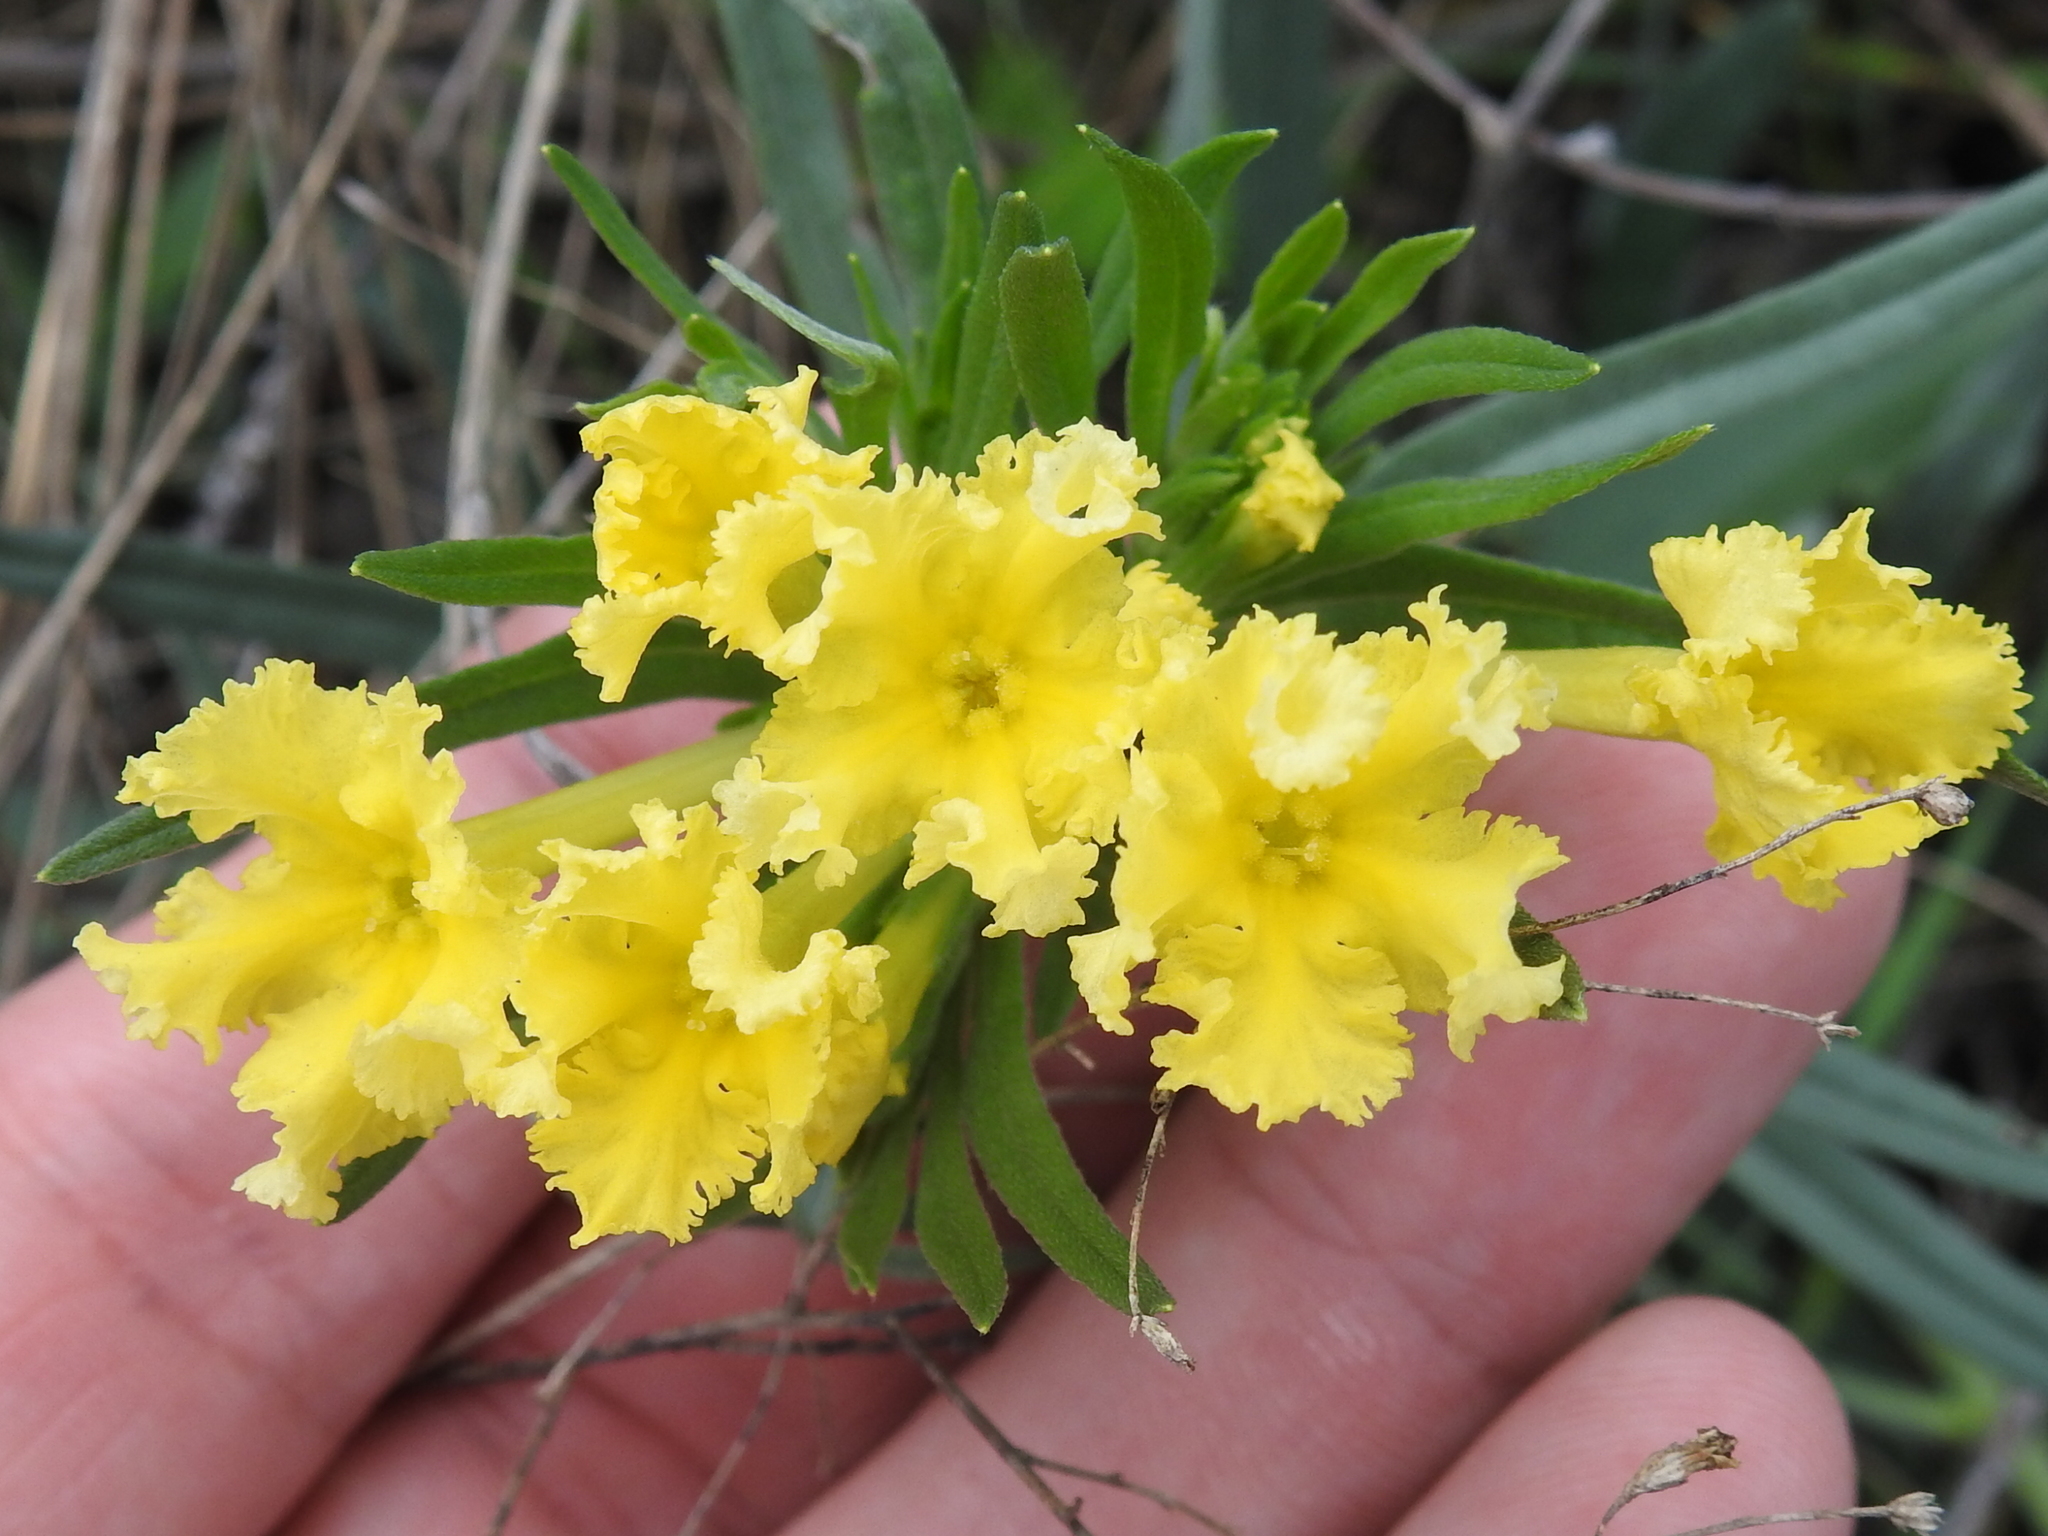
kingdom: Plantae
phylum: Tracheophyta
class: Magnoliopsida
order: Boraginales
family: Boraginaceae
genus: Lithospermum
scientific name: Lithospermum incisum
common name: Fringed gromwell
